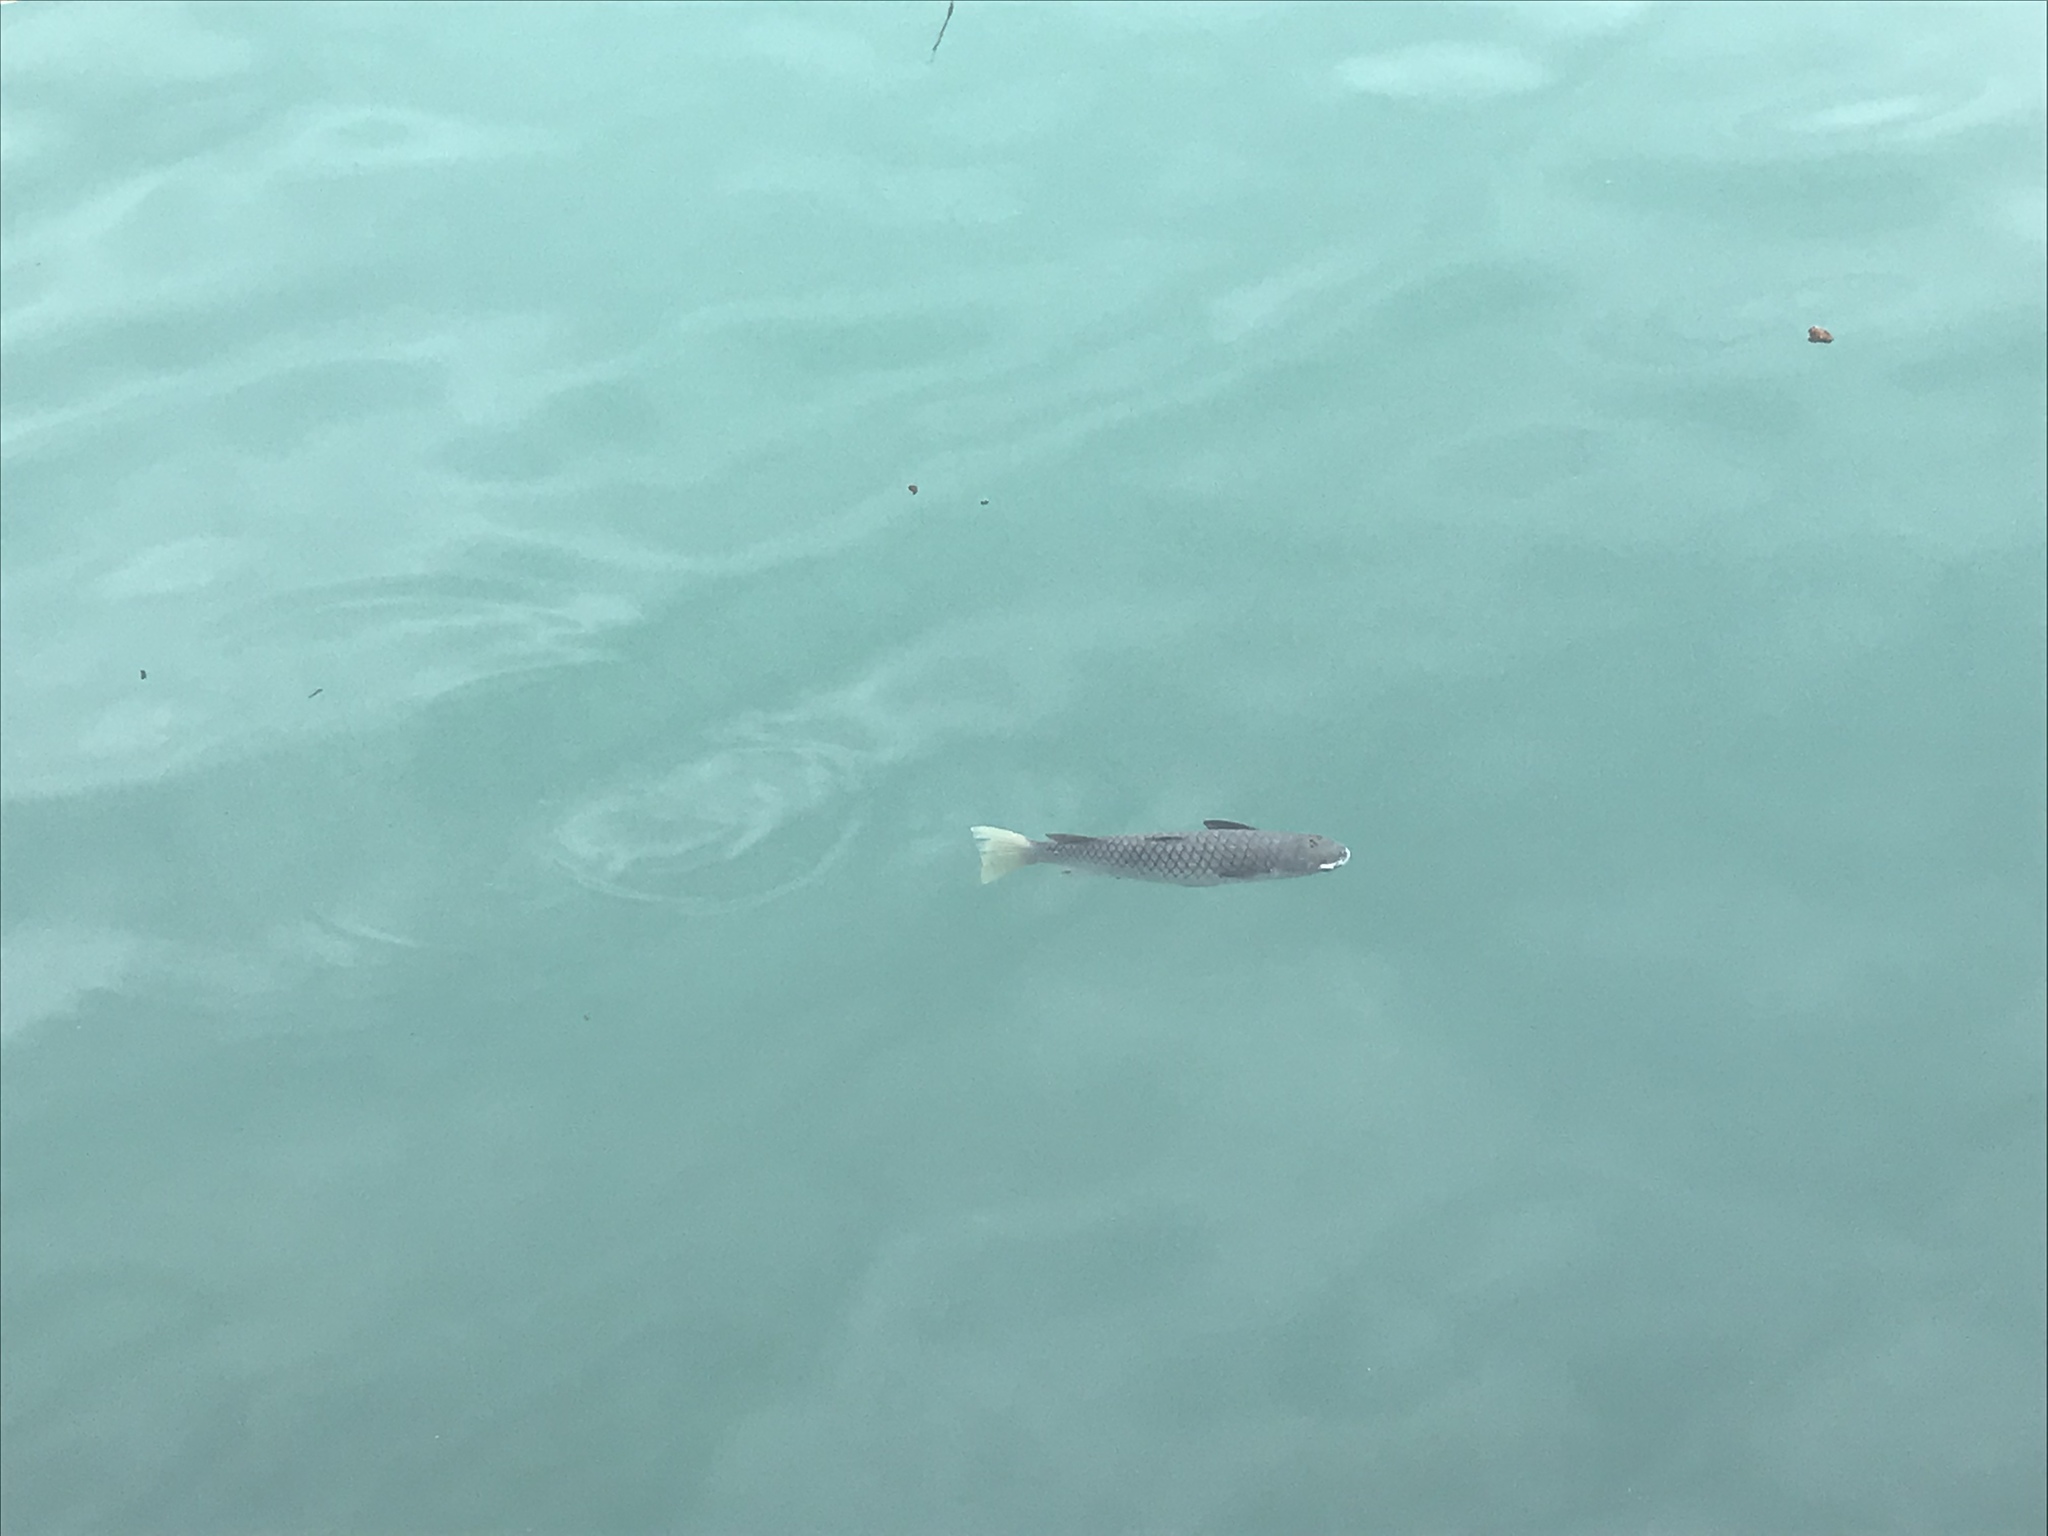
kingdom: Animalia
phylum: Chordata
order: Mugiliformes
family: Mugilidae
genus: Ellochelon
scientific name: Ellochelon vaigiensis
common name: Squaretail mullet
